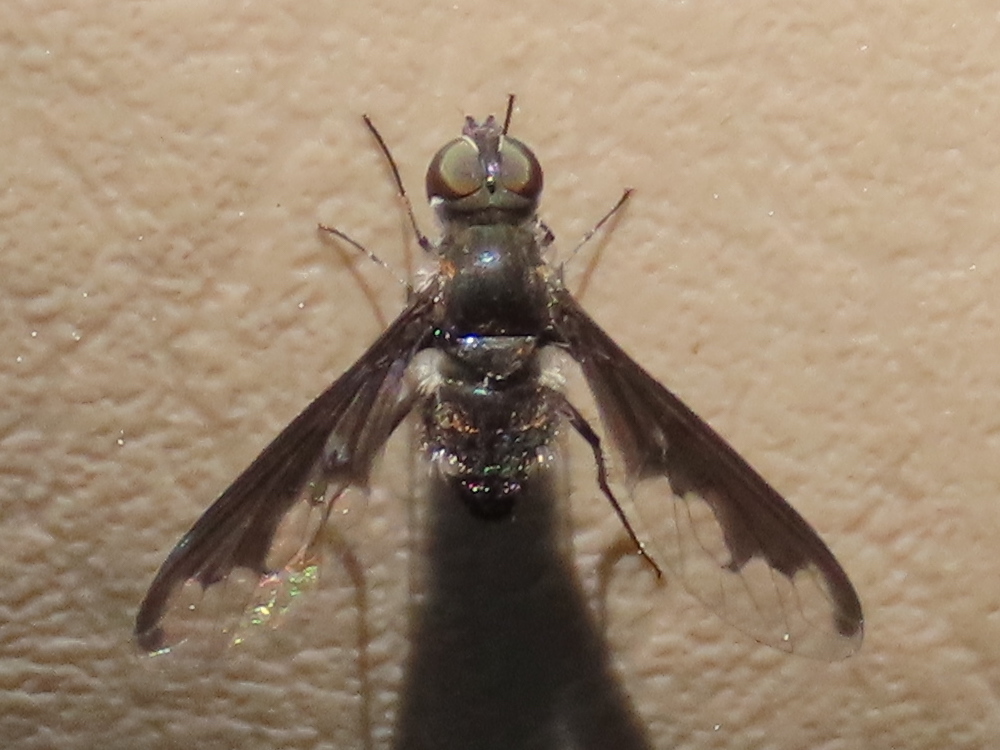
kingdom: Animalia
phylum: Arthropoda
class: Insecta
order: Diptera
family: Bombyliidae
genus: Anthrax
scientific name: Anthrax argyropygus
